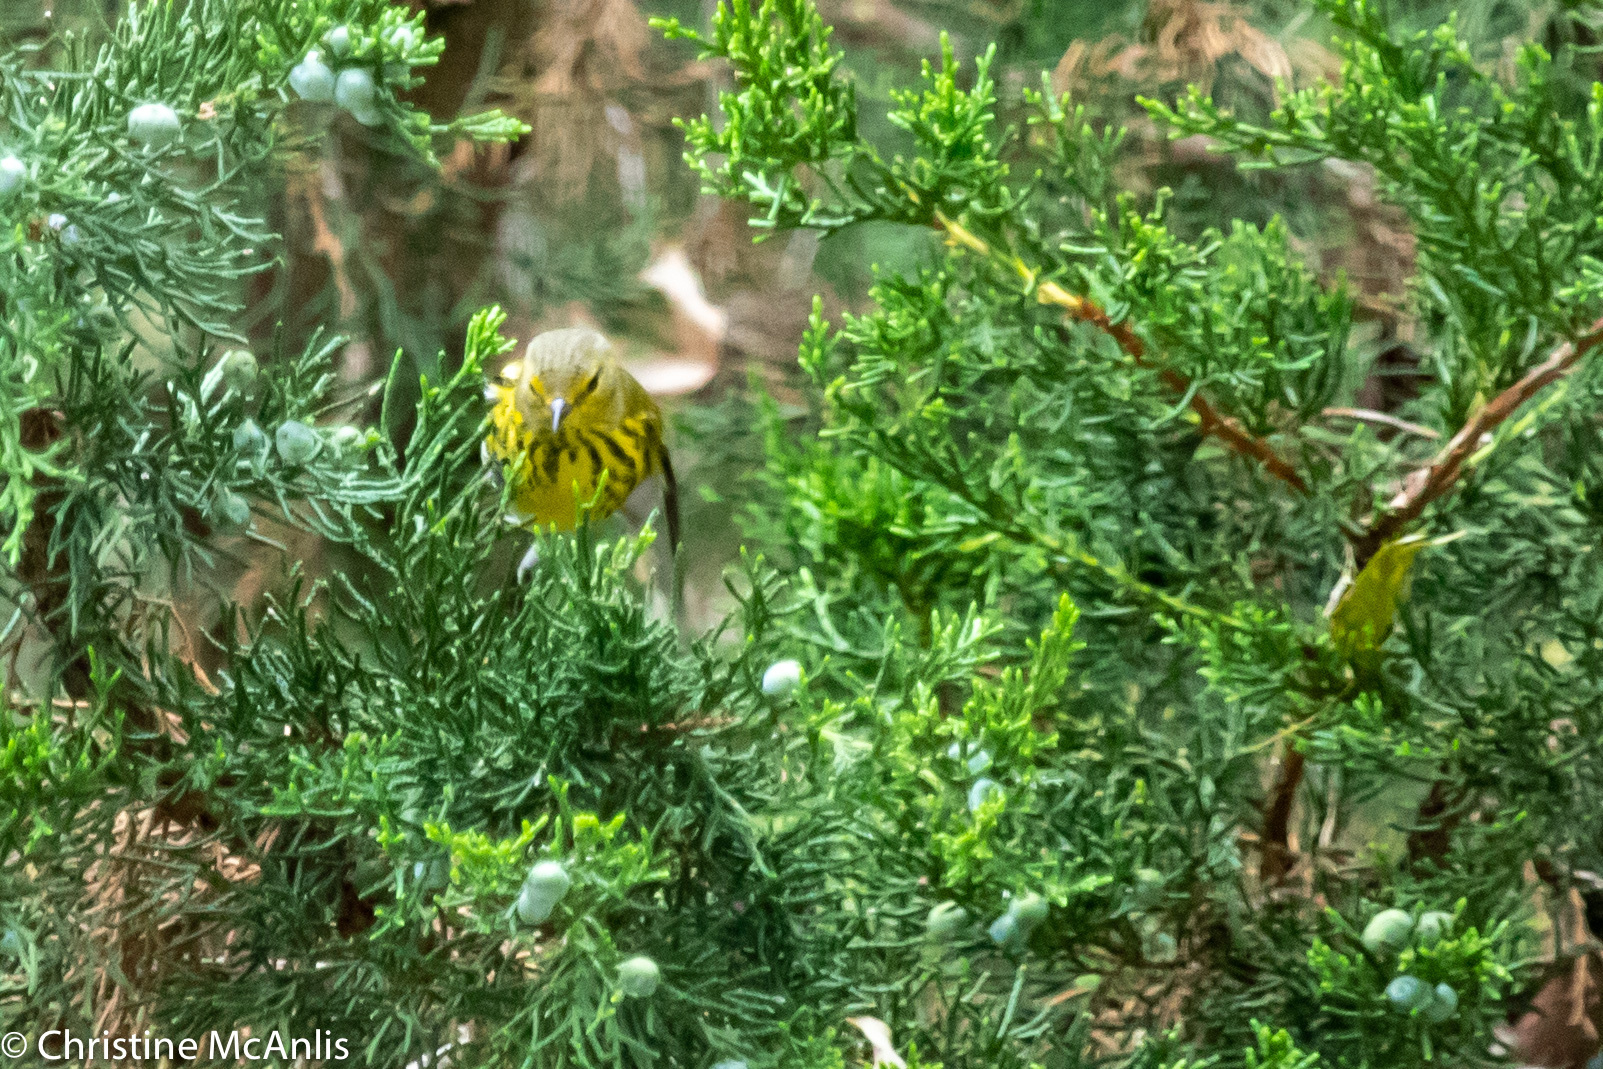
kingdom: Animalia
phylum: Chordata
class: Aves
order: Passeriformes
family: Parulidae
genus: Setophaga
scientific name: Setophaga tigrina
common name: Cape may warbler
